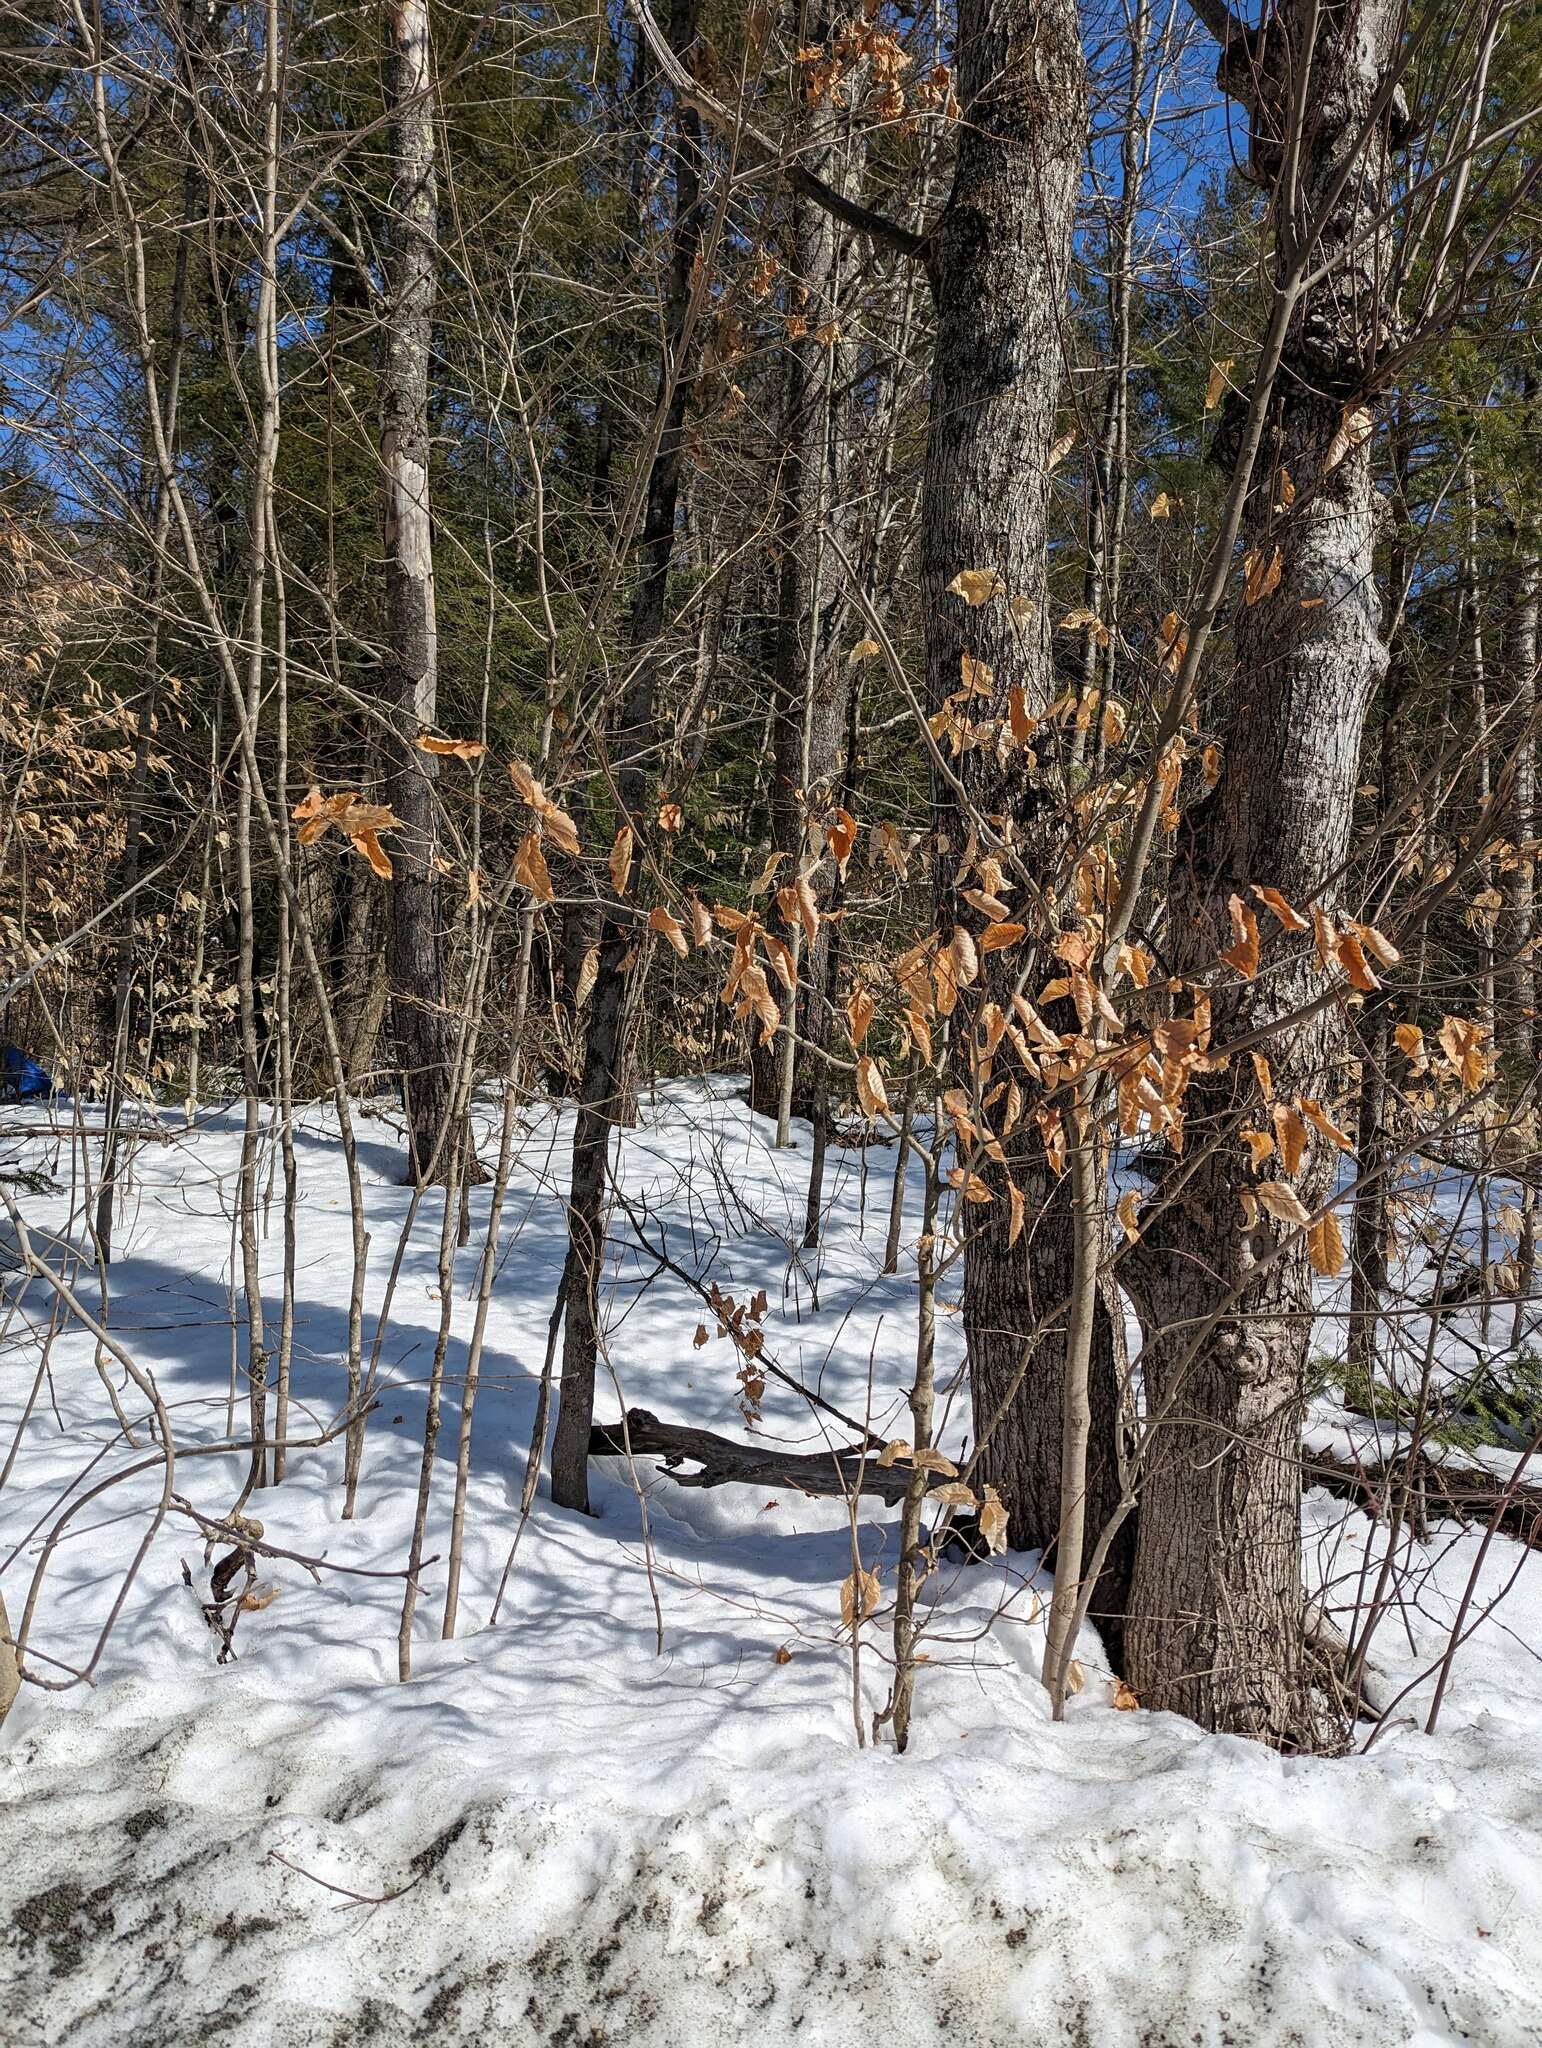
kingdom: Plantae
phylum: Tracheophyta
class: Magnoliopsida
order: Fagales
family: Fagaceae
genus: Fagus
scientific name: Fagus grandifolia
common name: American beech
